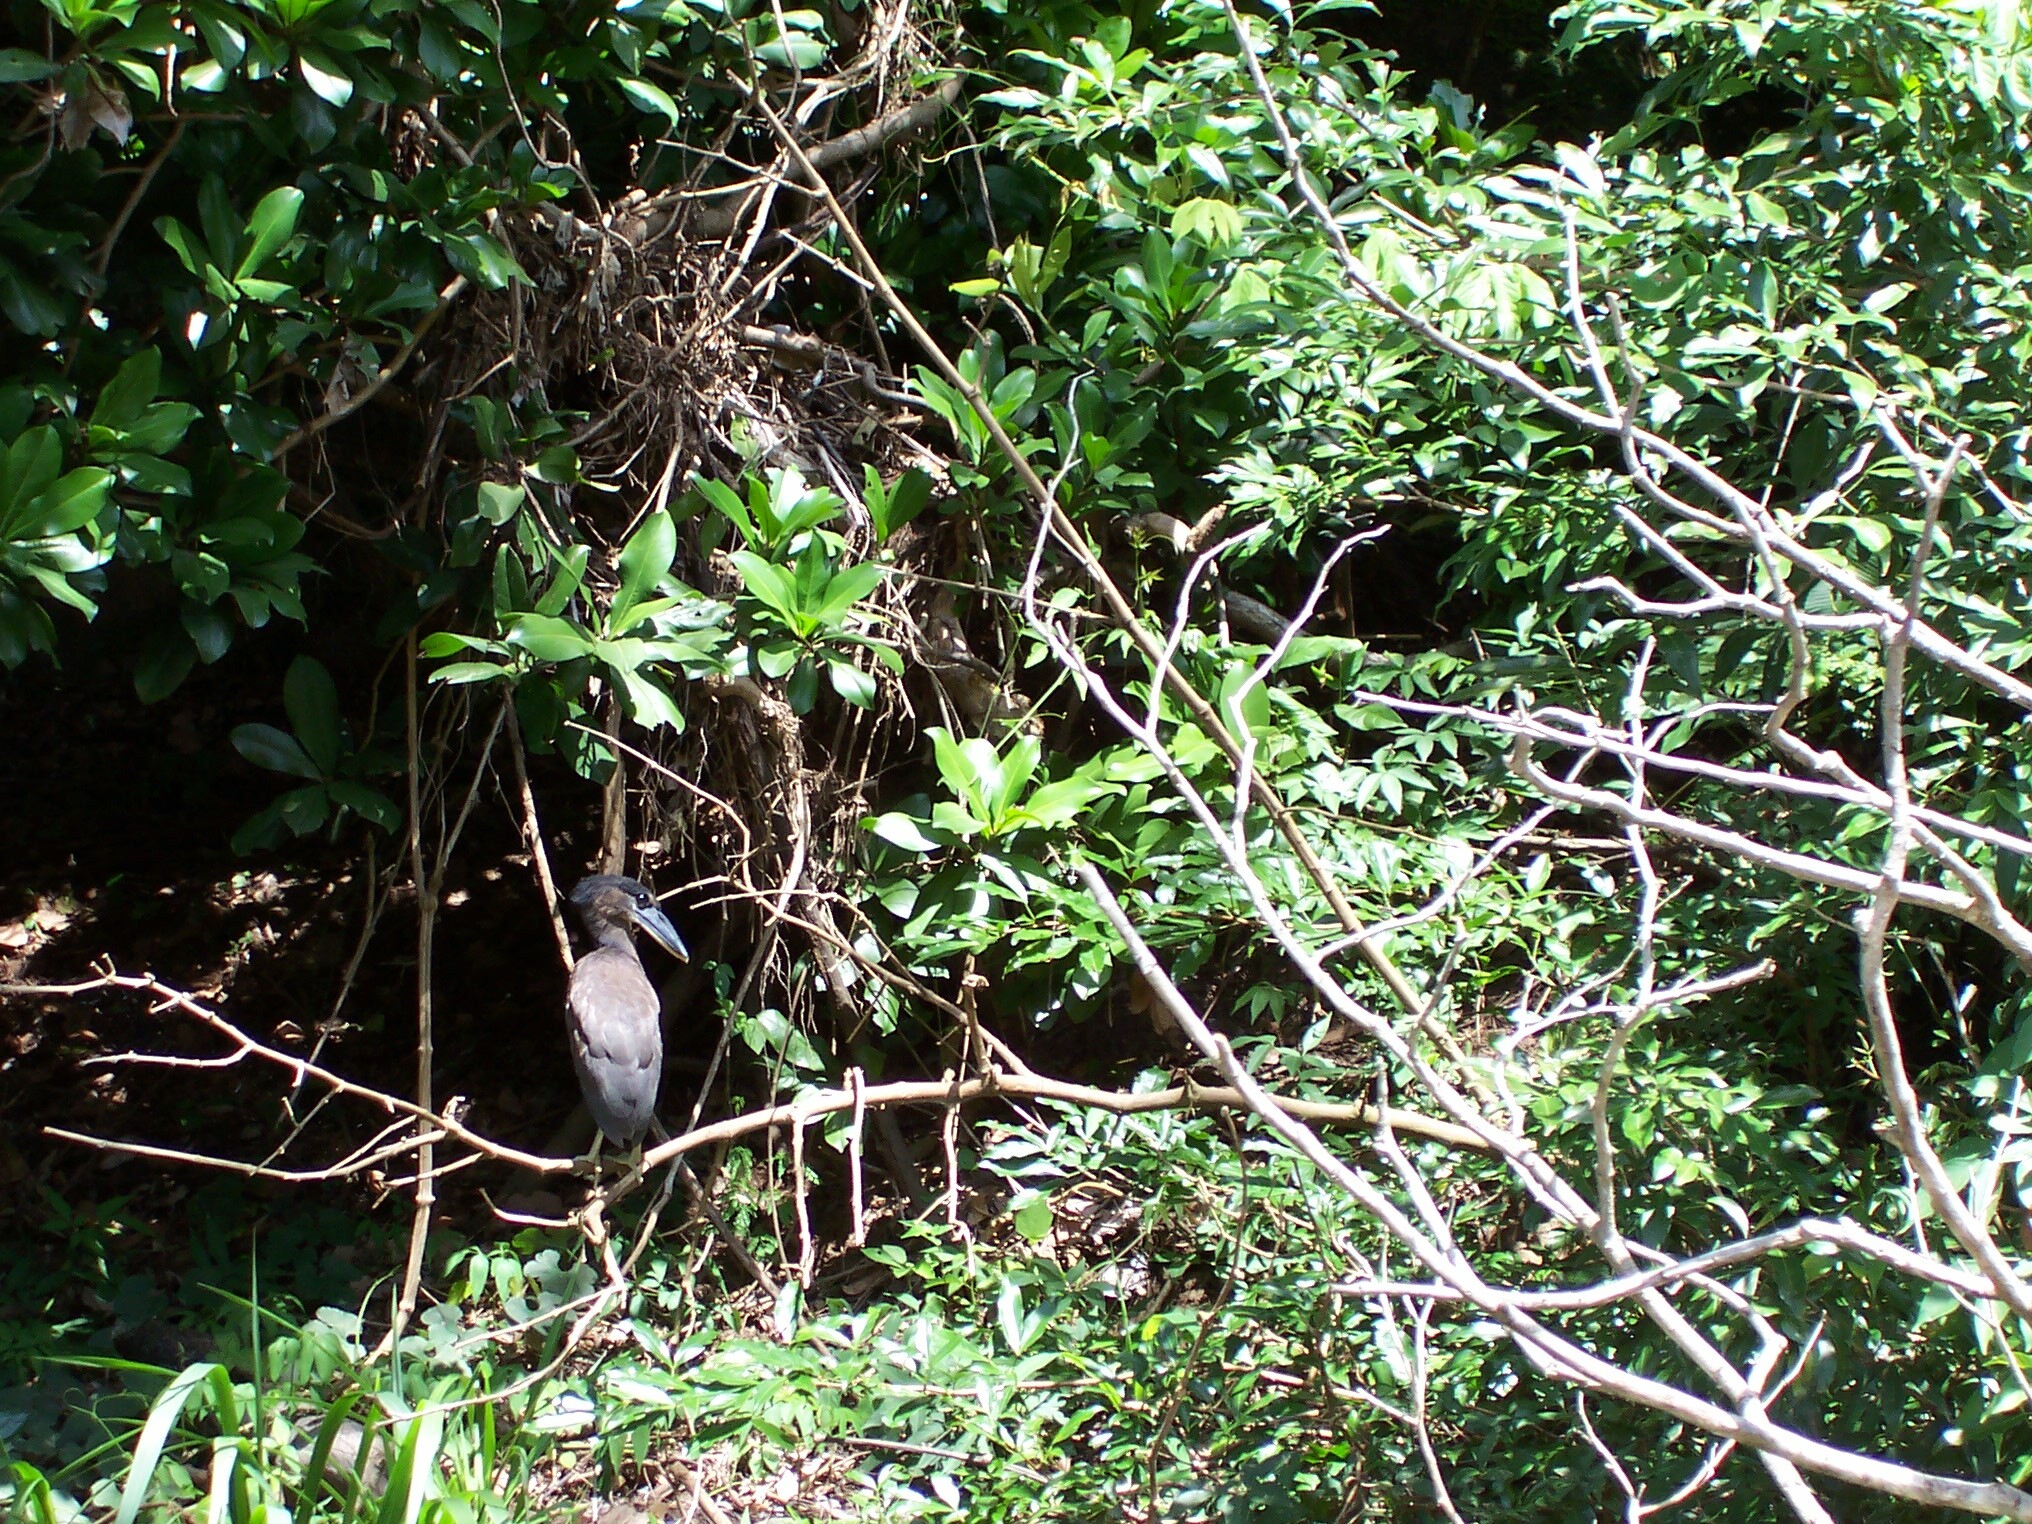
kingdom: Animalia
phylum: Chordata
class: Aves
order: Pelecaniformes
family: Ardeidae
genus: Cochlearius
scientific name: Cochlearius cochlearius
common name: Boat-billed heron
